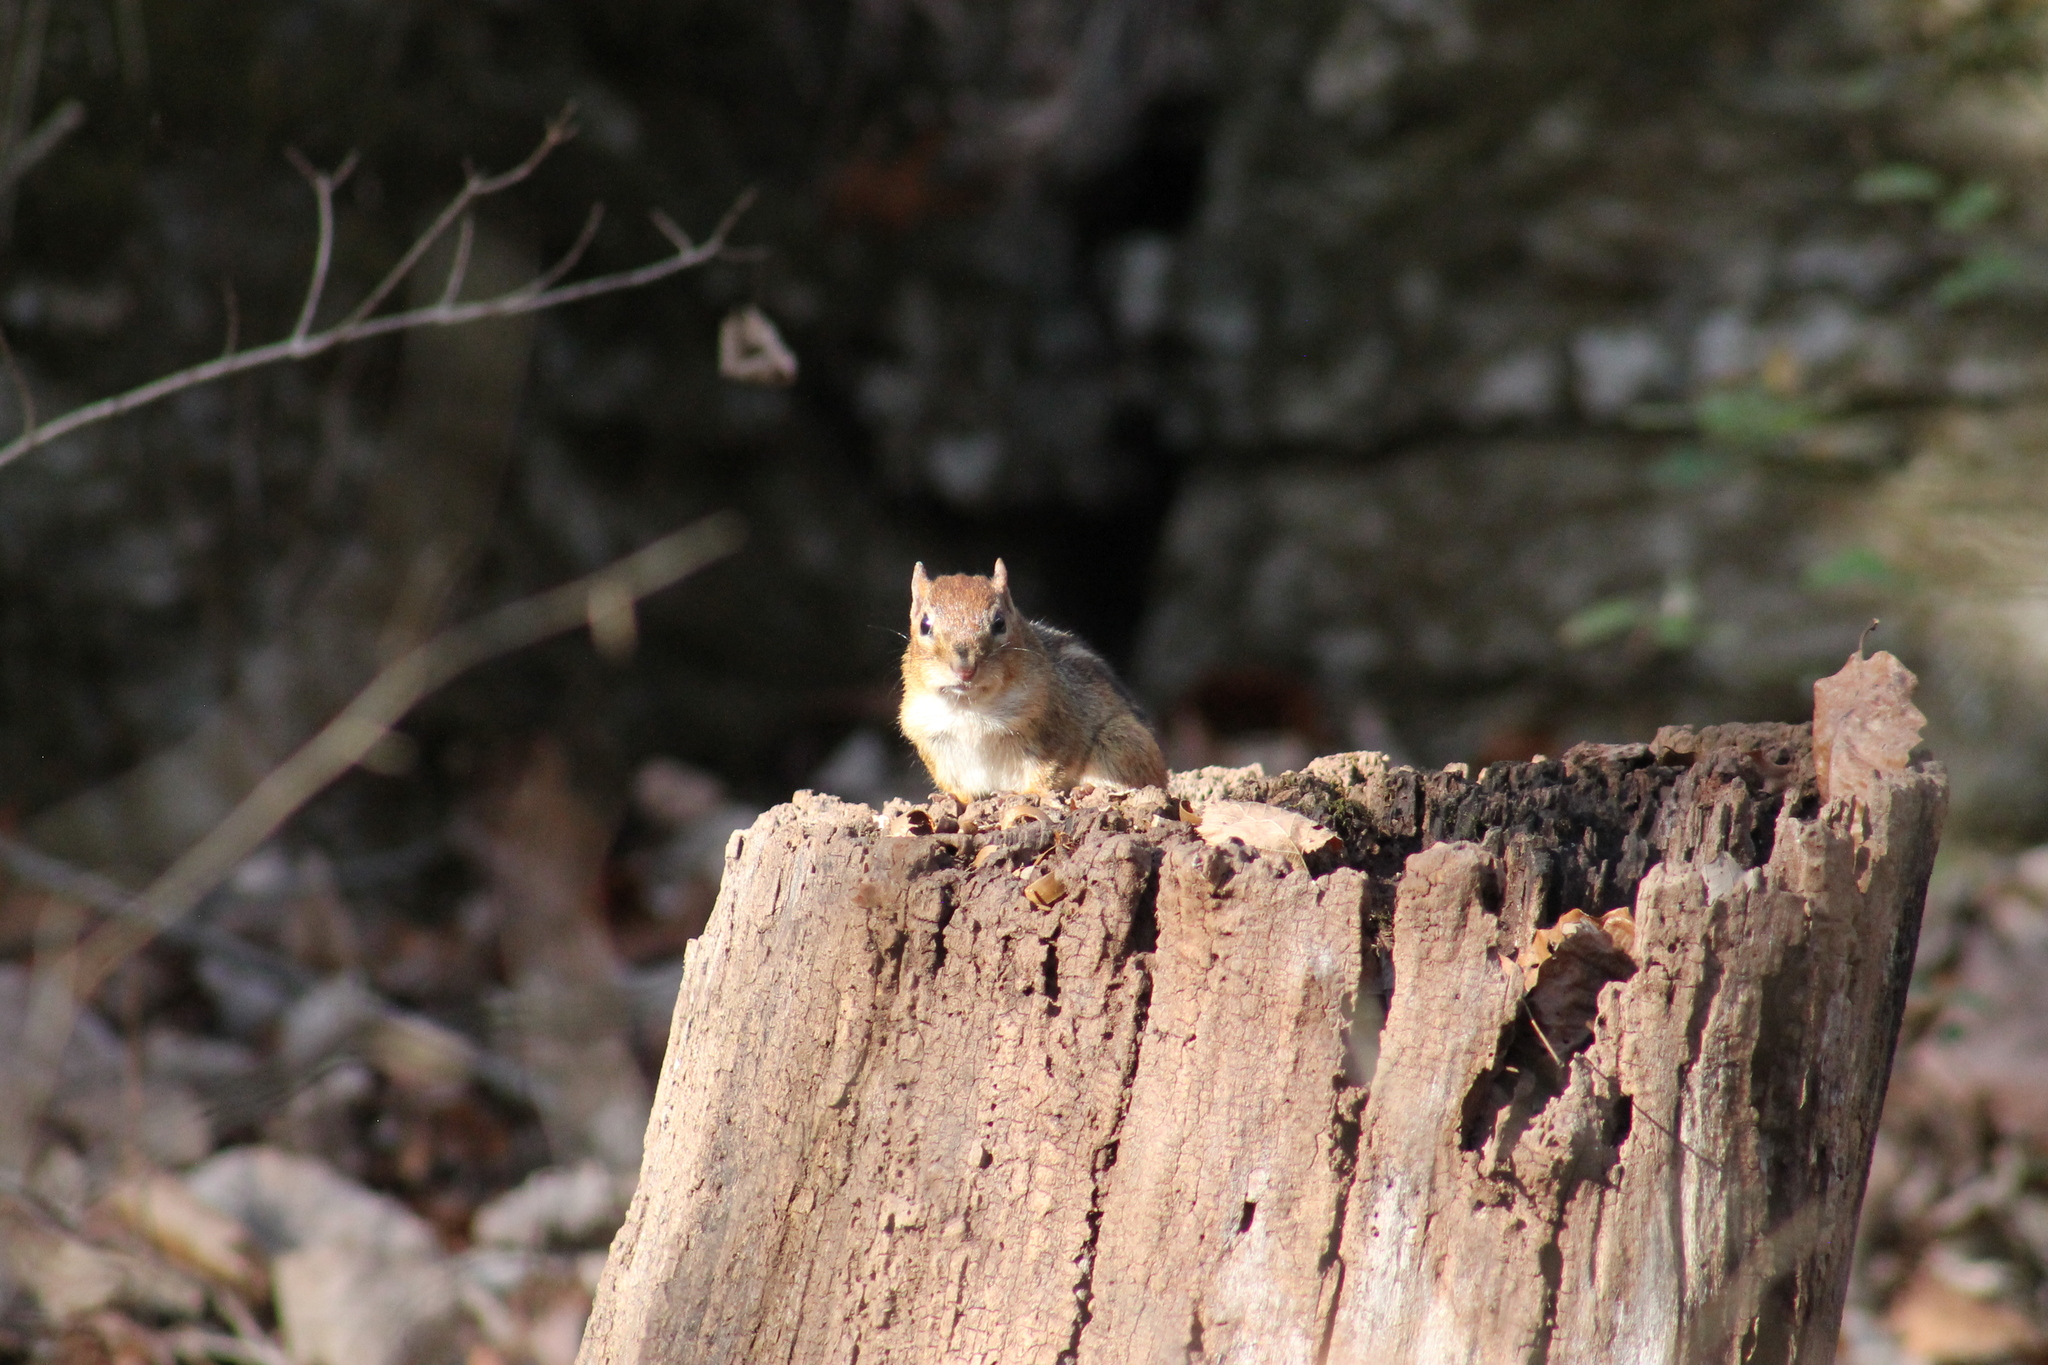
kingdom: Animalia
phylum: Chordata
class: Mammalia
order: Rodentia
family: Sciuridae
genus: Tamias
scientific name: Tamias striatus
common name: Eastern chipmunk
